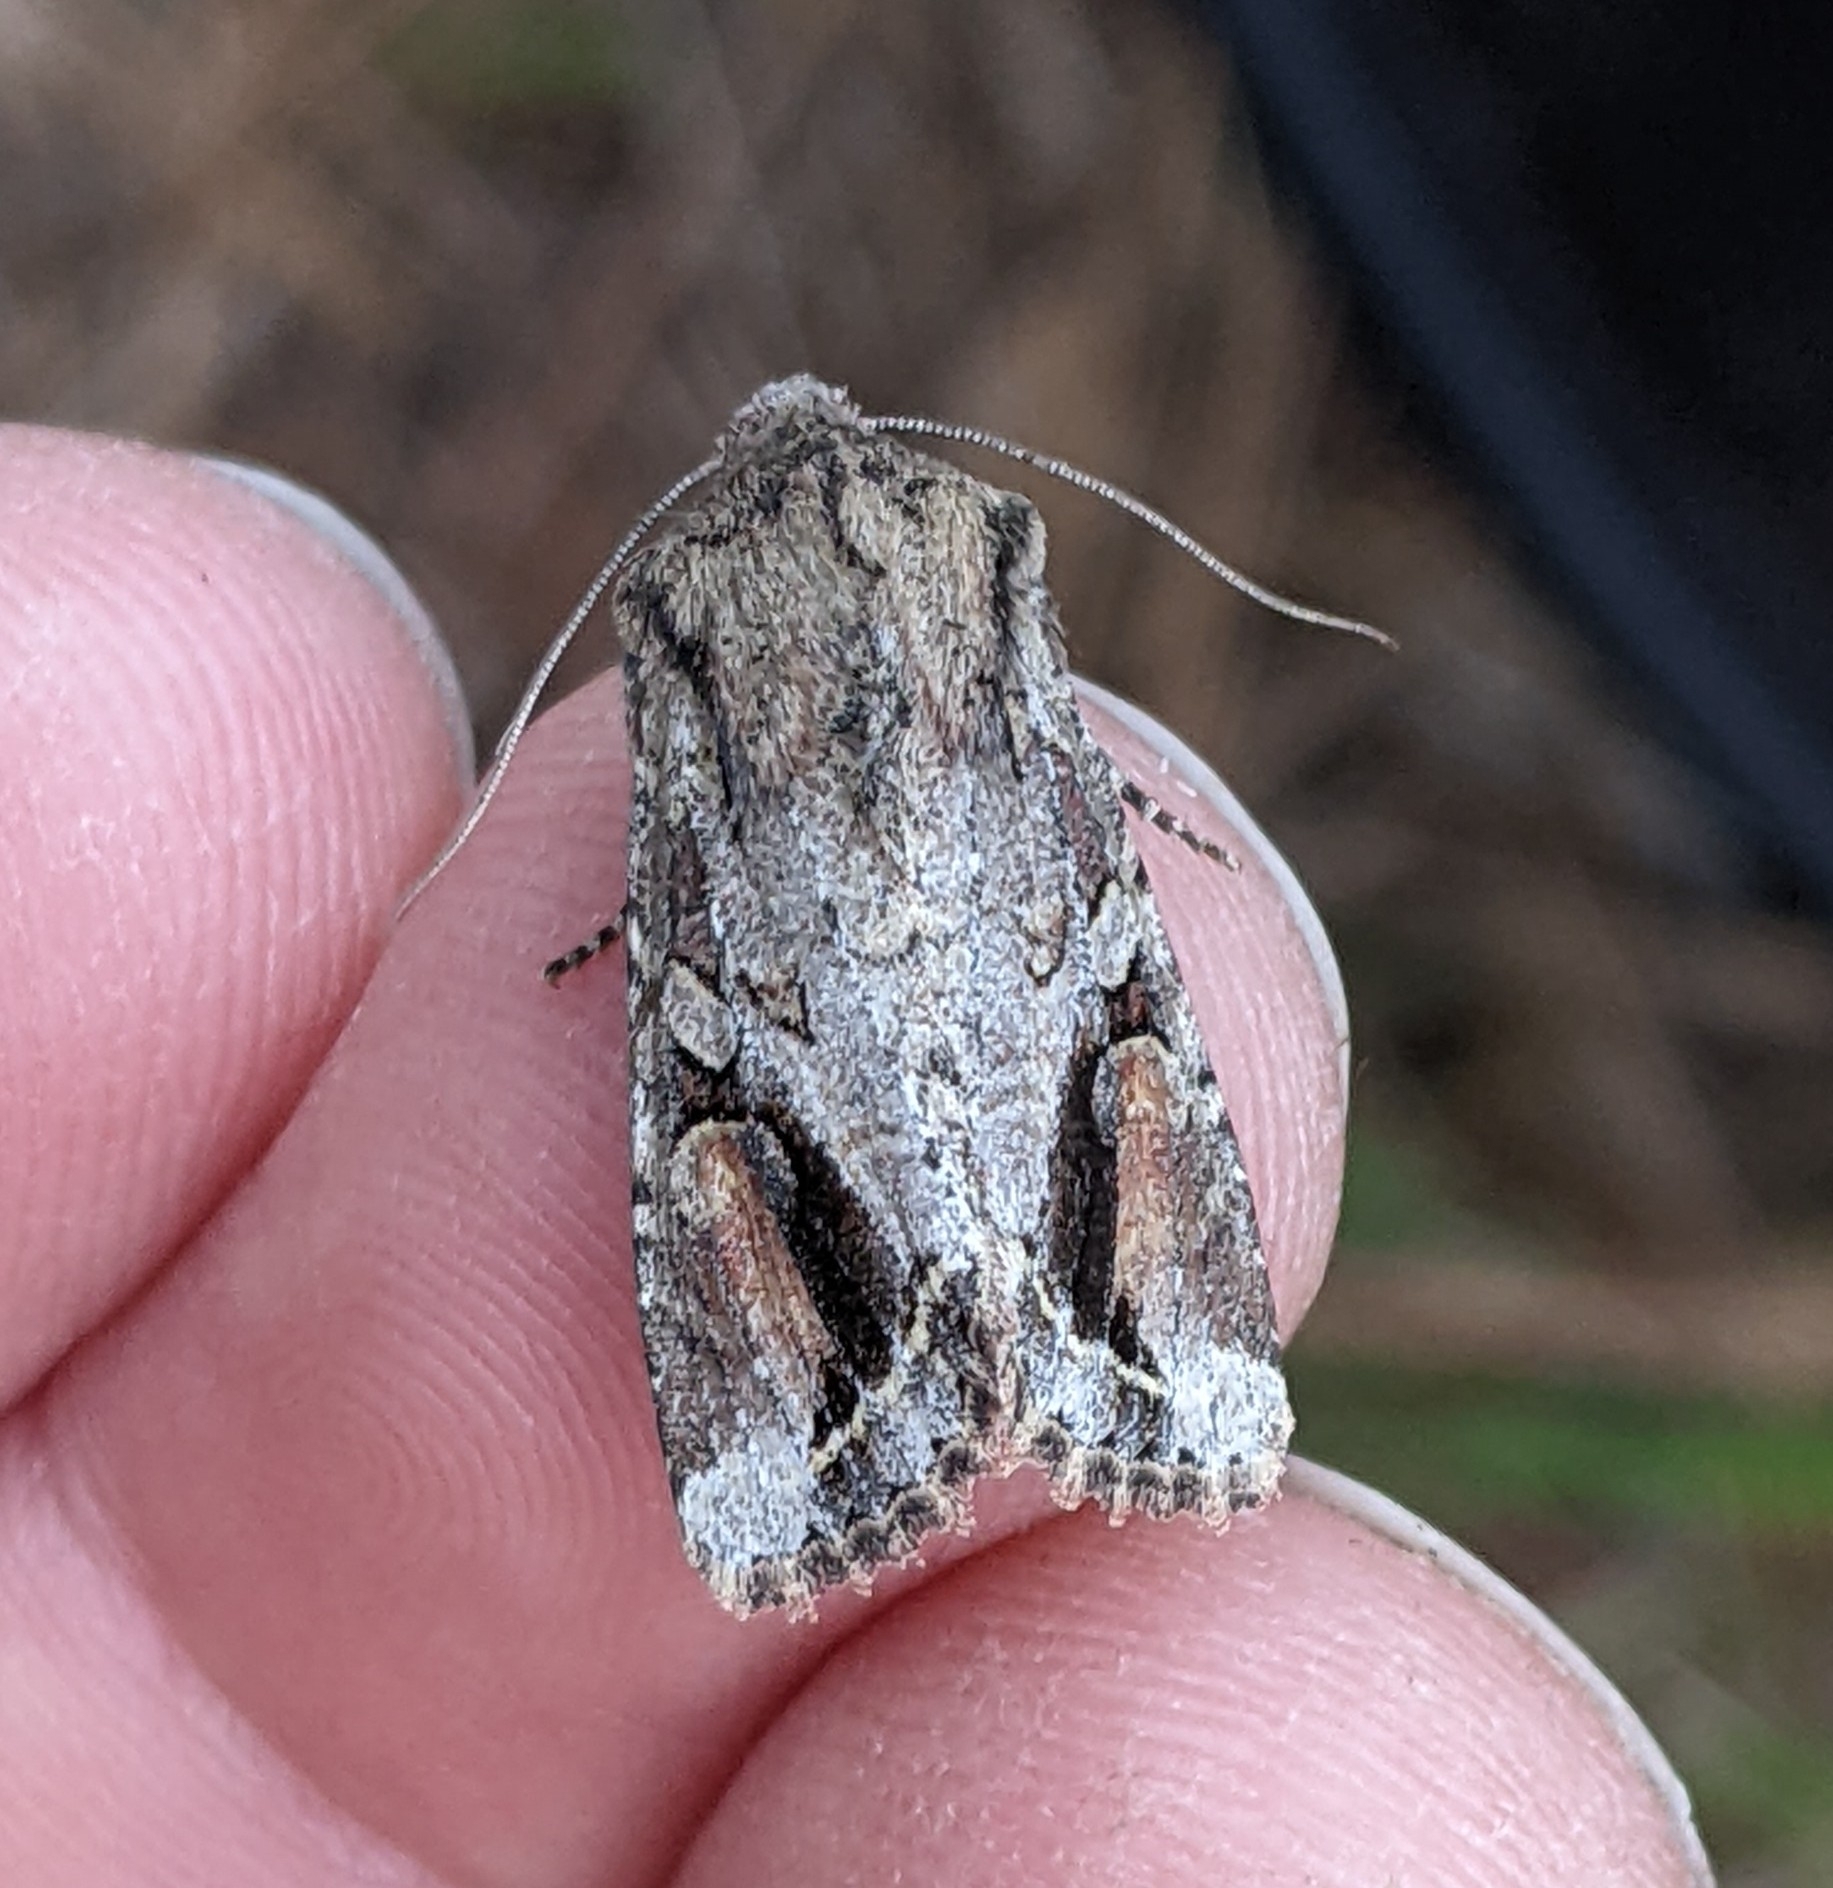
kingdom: Animalia
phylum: Arthropoda
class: Insecta
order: Lepidoptera
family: Noctuidae
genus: Egira
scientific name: Egira rubrica
